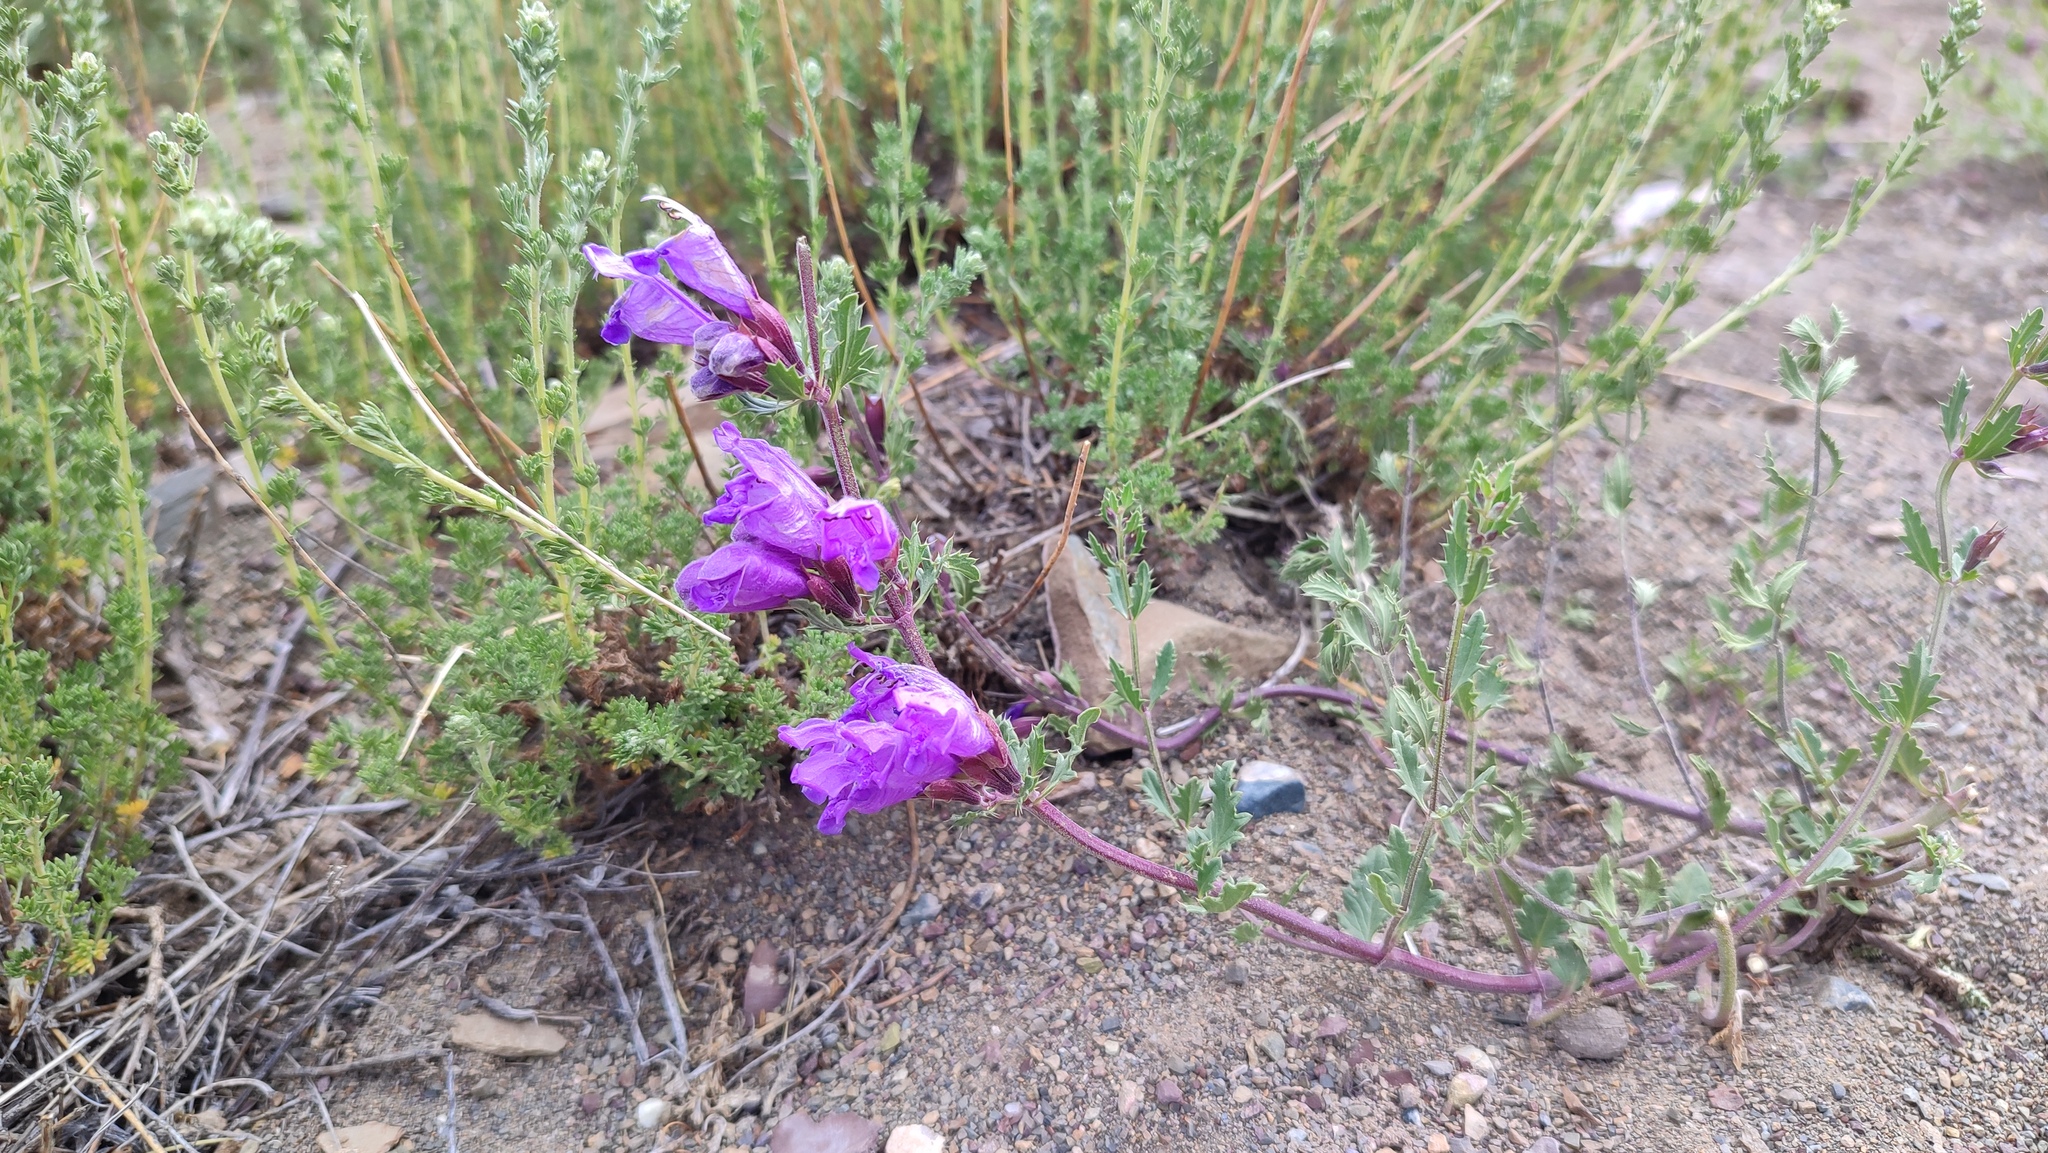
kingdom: Plantae
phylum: Tracheophyta
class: Magnoliopsida
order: Lamiales
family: Lamiaceae
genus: Dracocephalum
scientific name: Dracocephalum peregrinum
